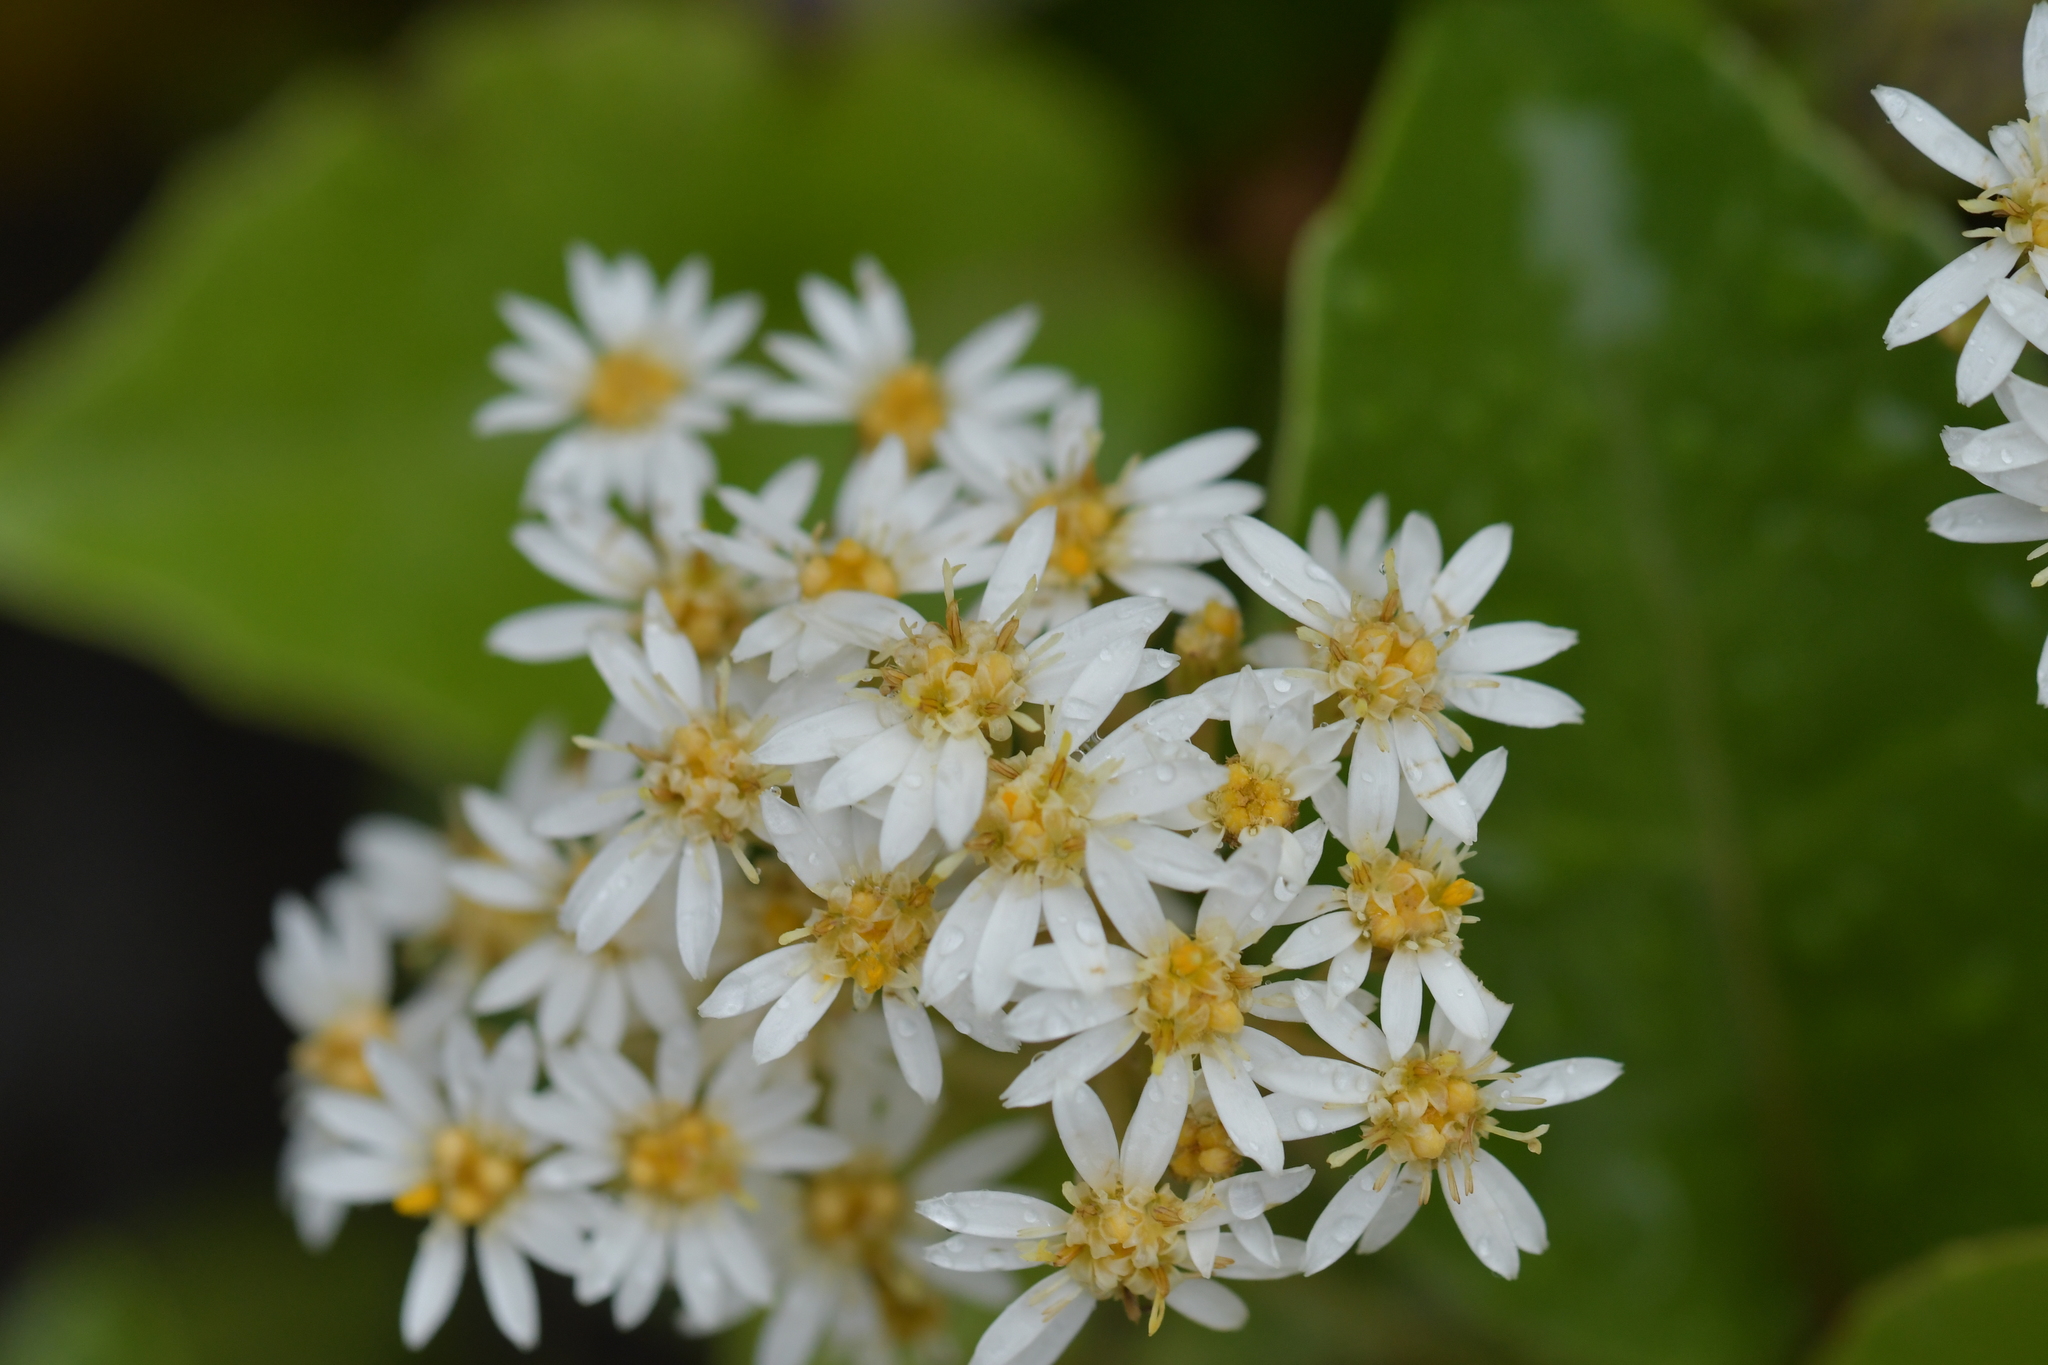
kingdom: Plantae
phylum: Tracheophyta
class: Magnoliopsida
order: Asterales
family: Asteraceae
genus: Olearia
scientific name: Olearia arborescens
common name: Glossy tree daisy
